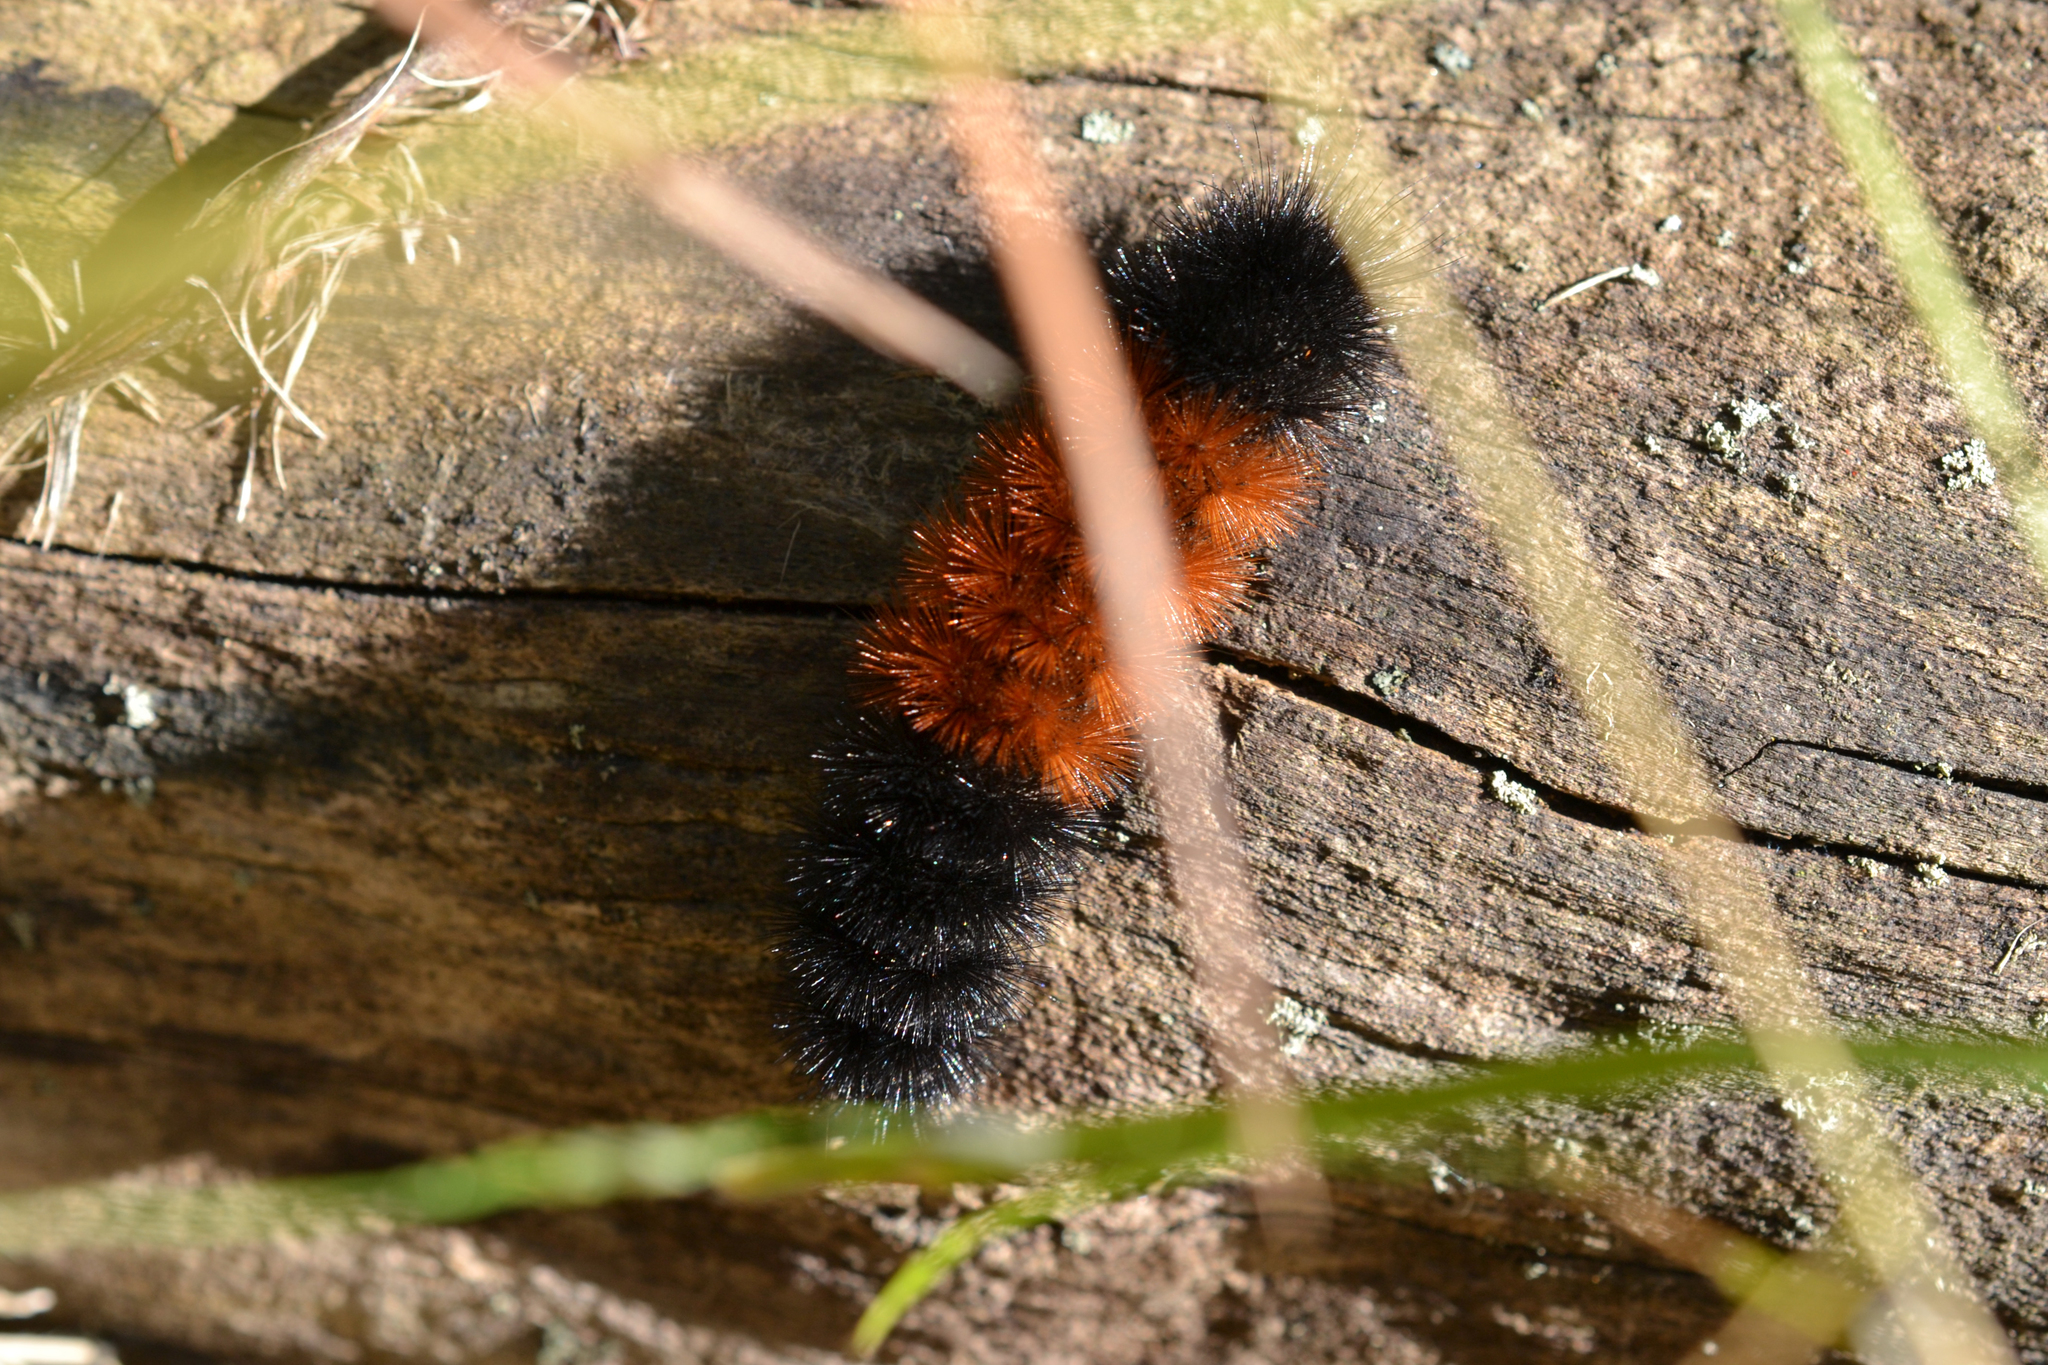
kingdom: Animalia
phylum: Arthropoda
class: Insecta
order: Lepidoptera
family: Erebidae
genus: Pyrrharctia
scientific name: Pyrrharctia isabella
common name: Isabella tiger moth
